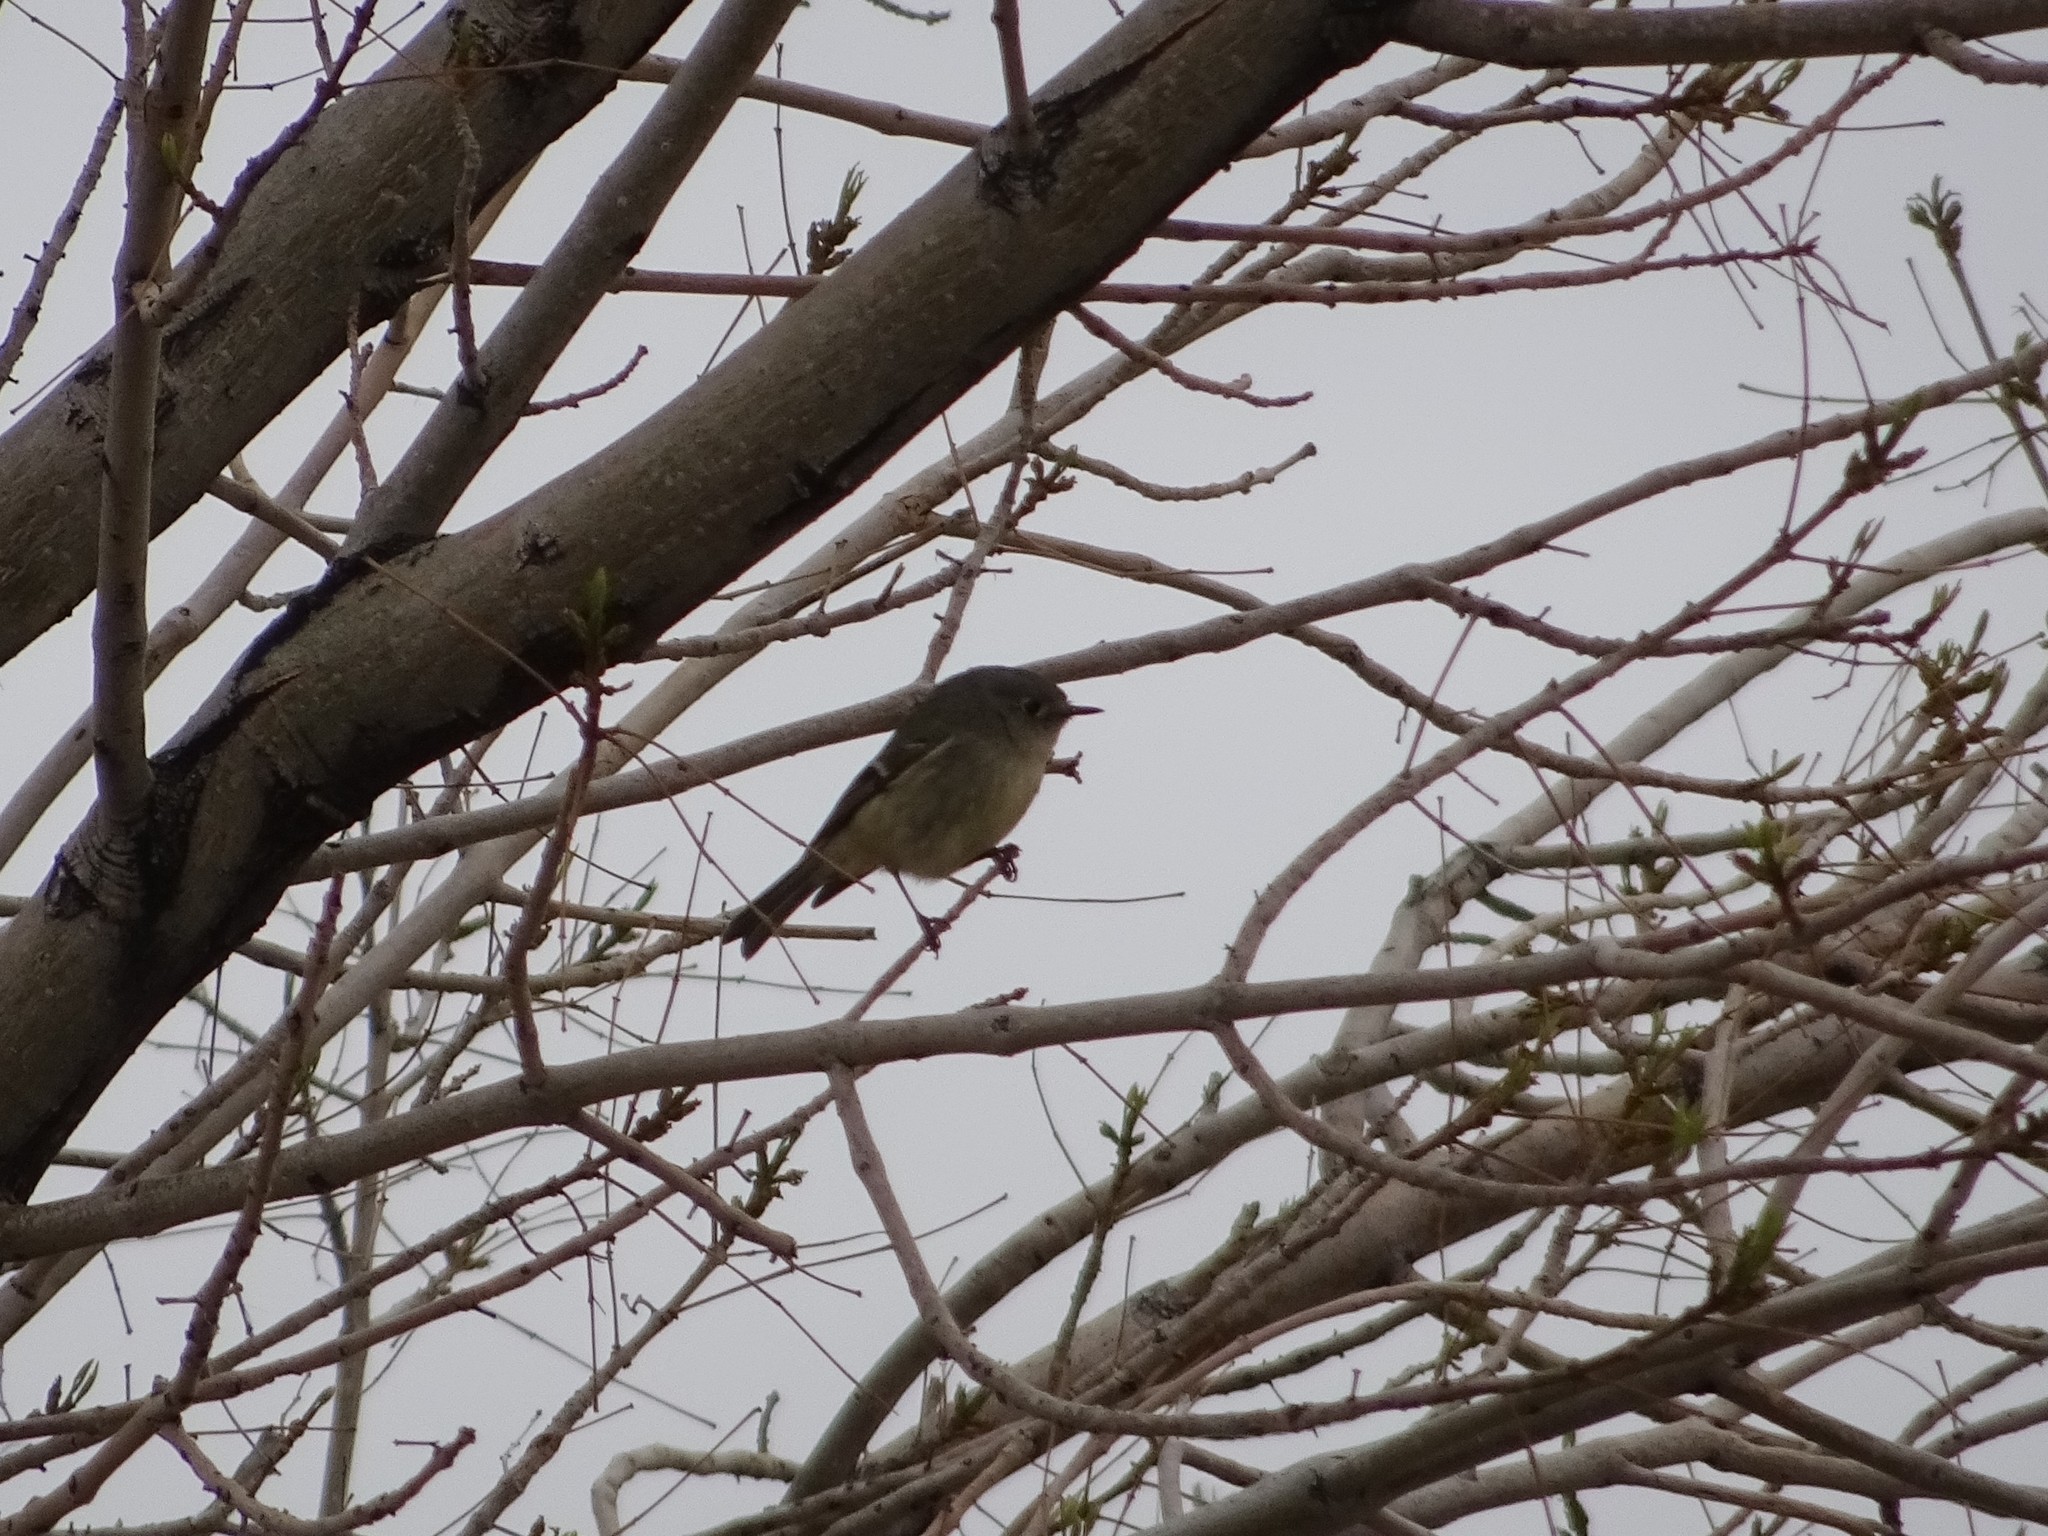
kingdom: Animalia
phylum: Chordata
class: Aves
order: Passeriformes
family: Regulidae
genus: Regulus
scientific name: Regulus calendula
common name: Ruby-crowned kinglet
